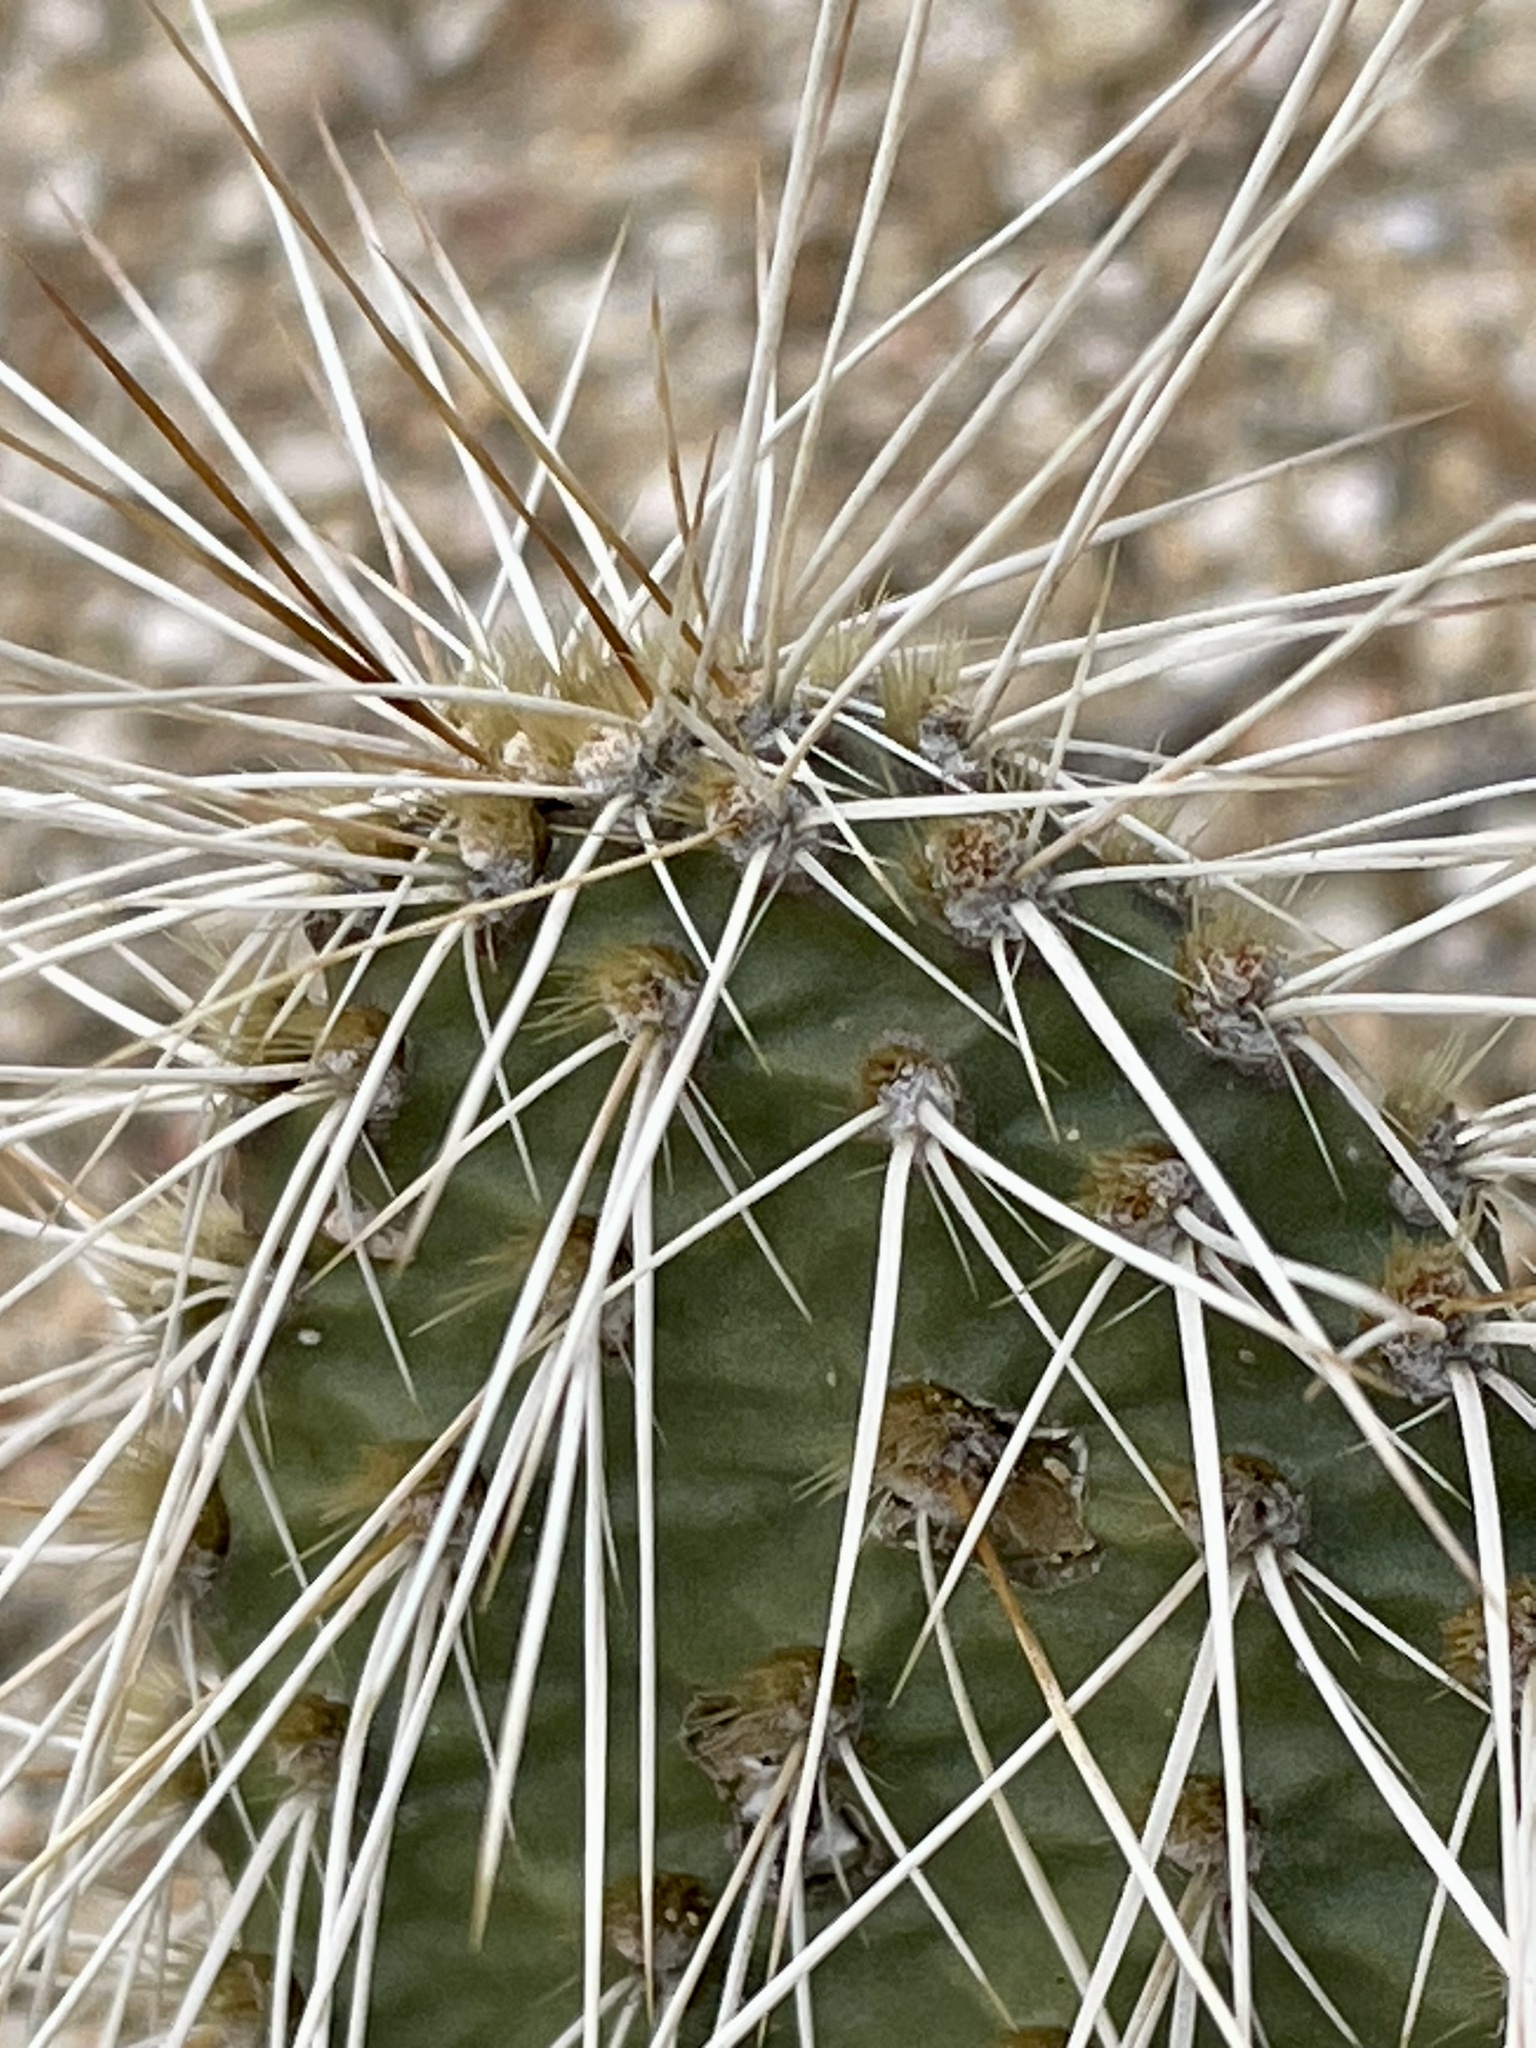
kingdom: Plantae
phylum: Tracheophyta
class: Magnoliopsida
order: Caryophyllales
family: Cactaceae
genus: Opuntia
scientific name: Opuntia polyacantha
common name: Plains prickly-pear
